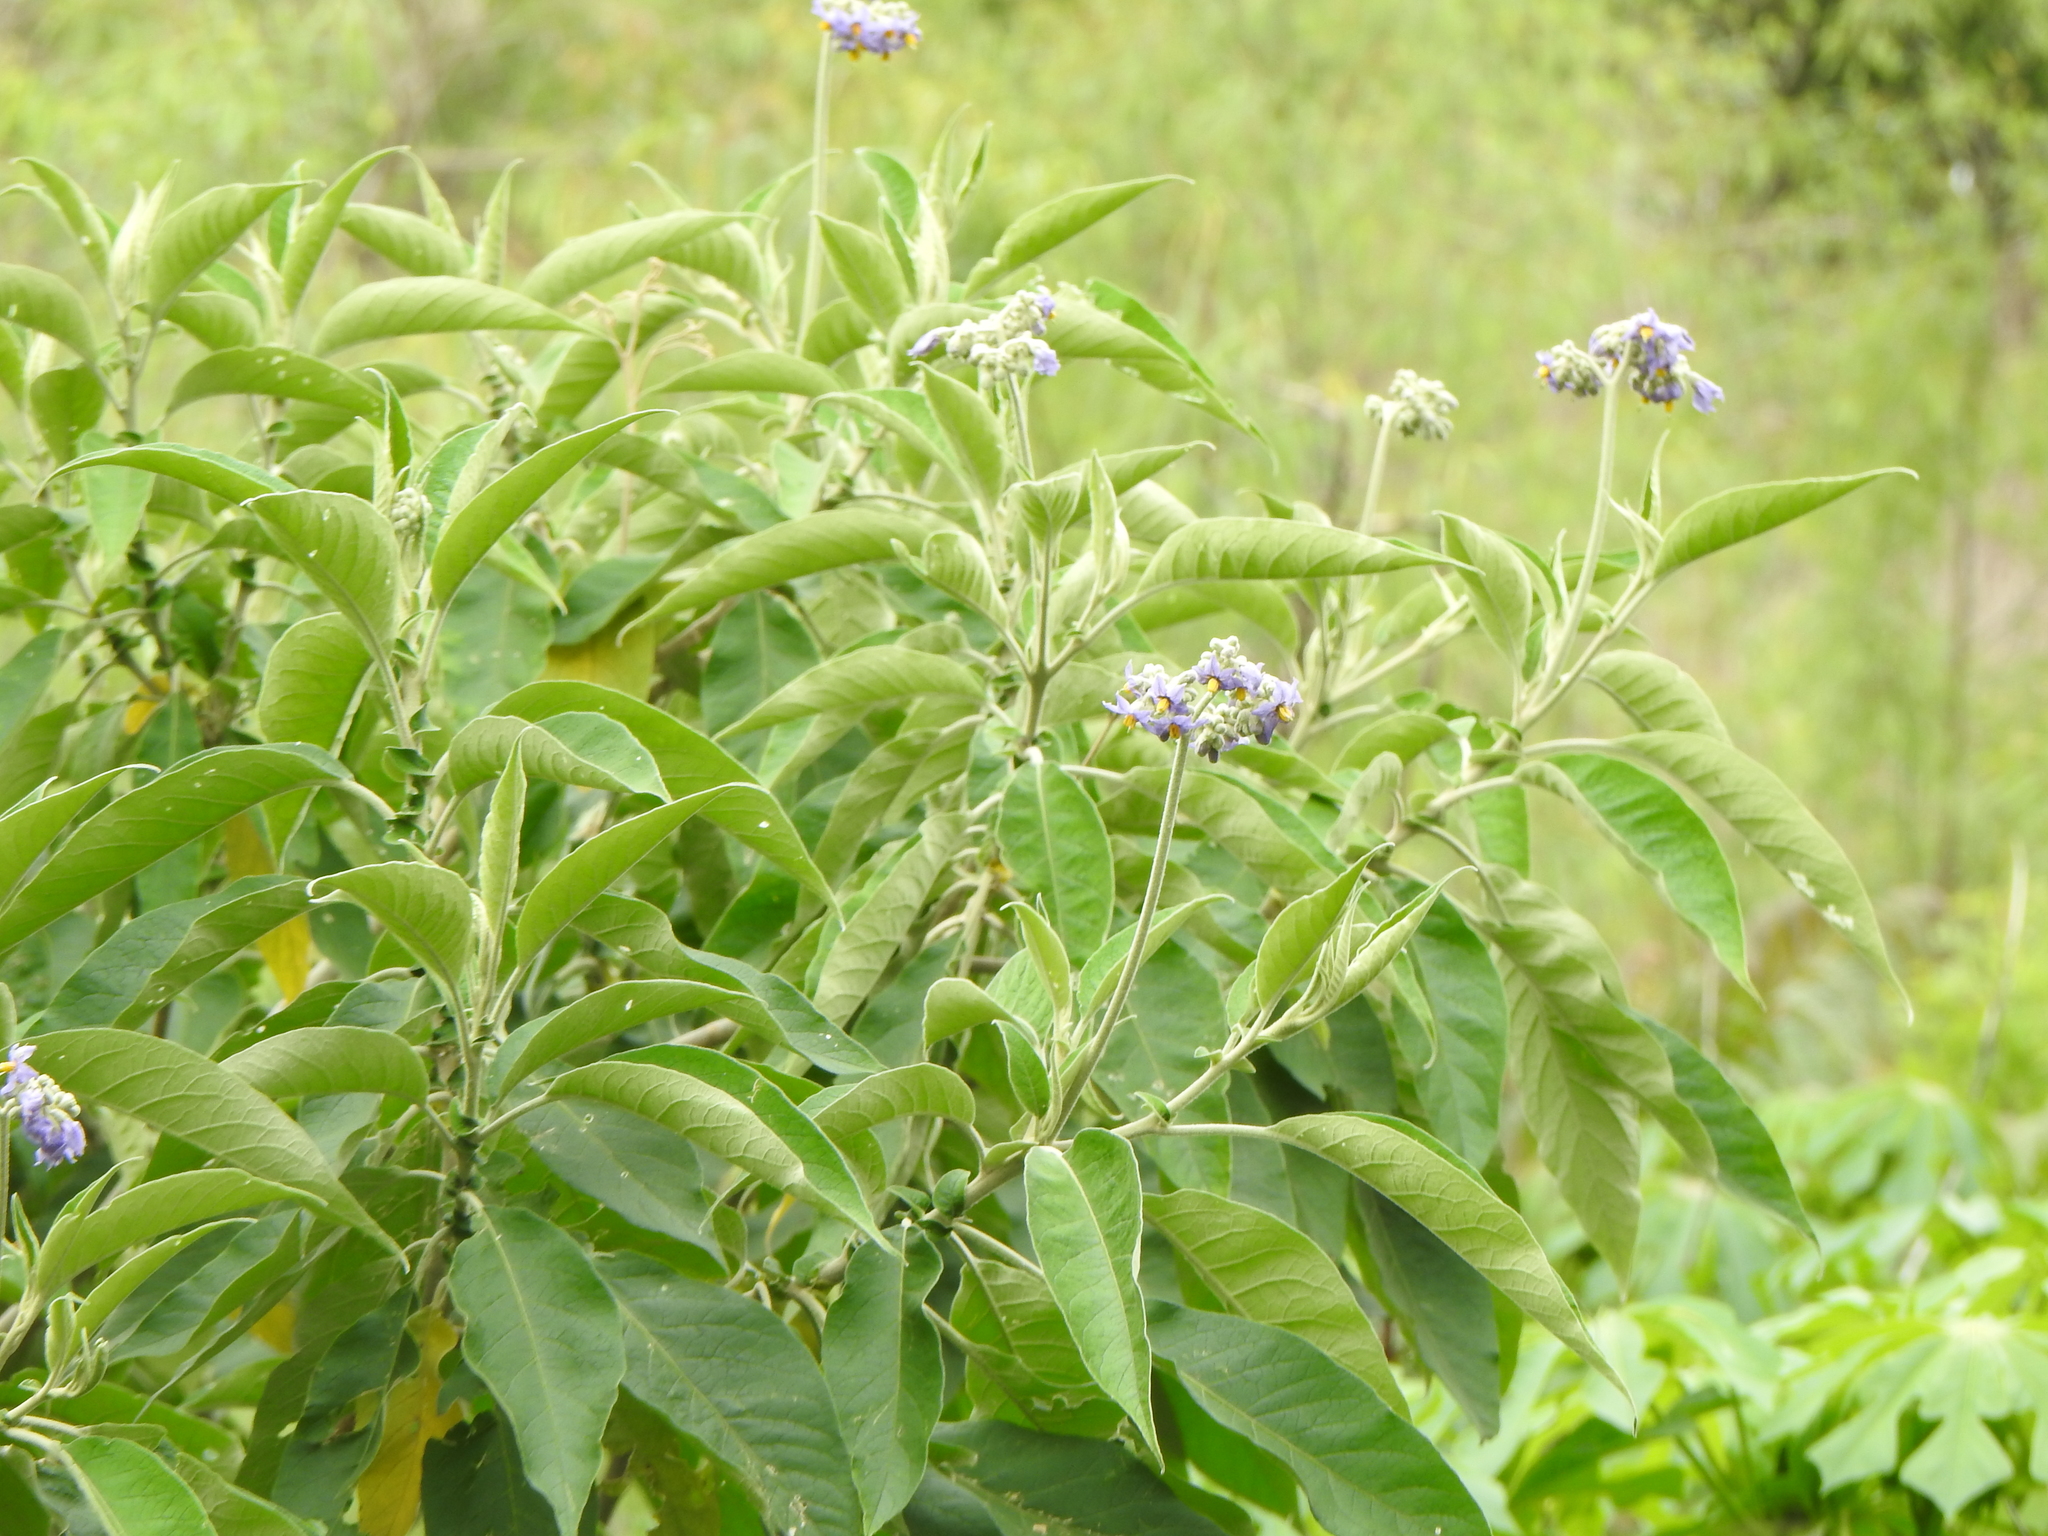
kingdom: Plantae
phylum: Tracheophyta
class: Magnoliopsida
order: Solanales
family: Solanaceae
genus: Solanum
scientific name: Solanum granulosoleprosum
